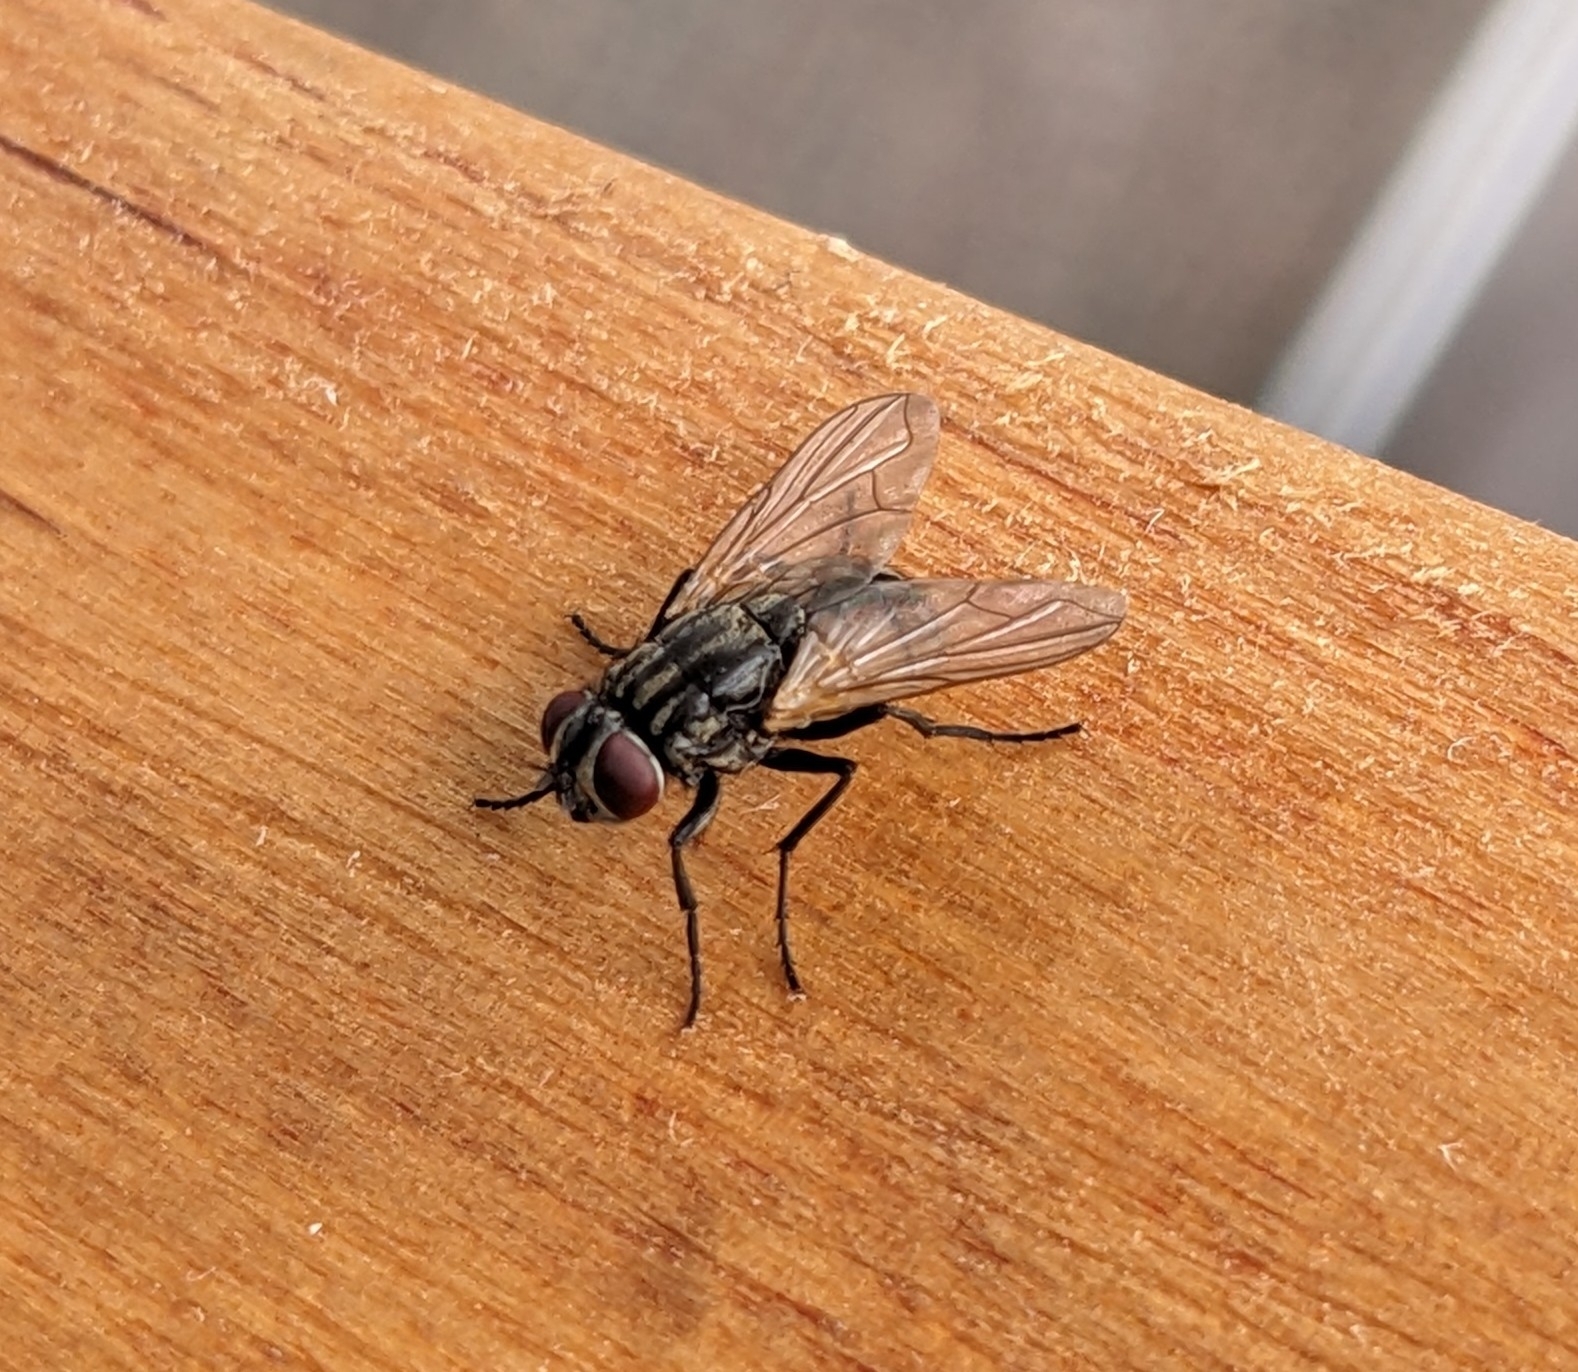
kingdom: Animalia
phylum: Arthropoda
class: Insecta
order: Diptera
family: Muscidae
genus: Musca
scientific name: Musca domestica
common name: House fly
